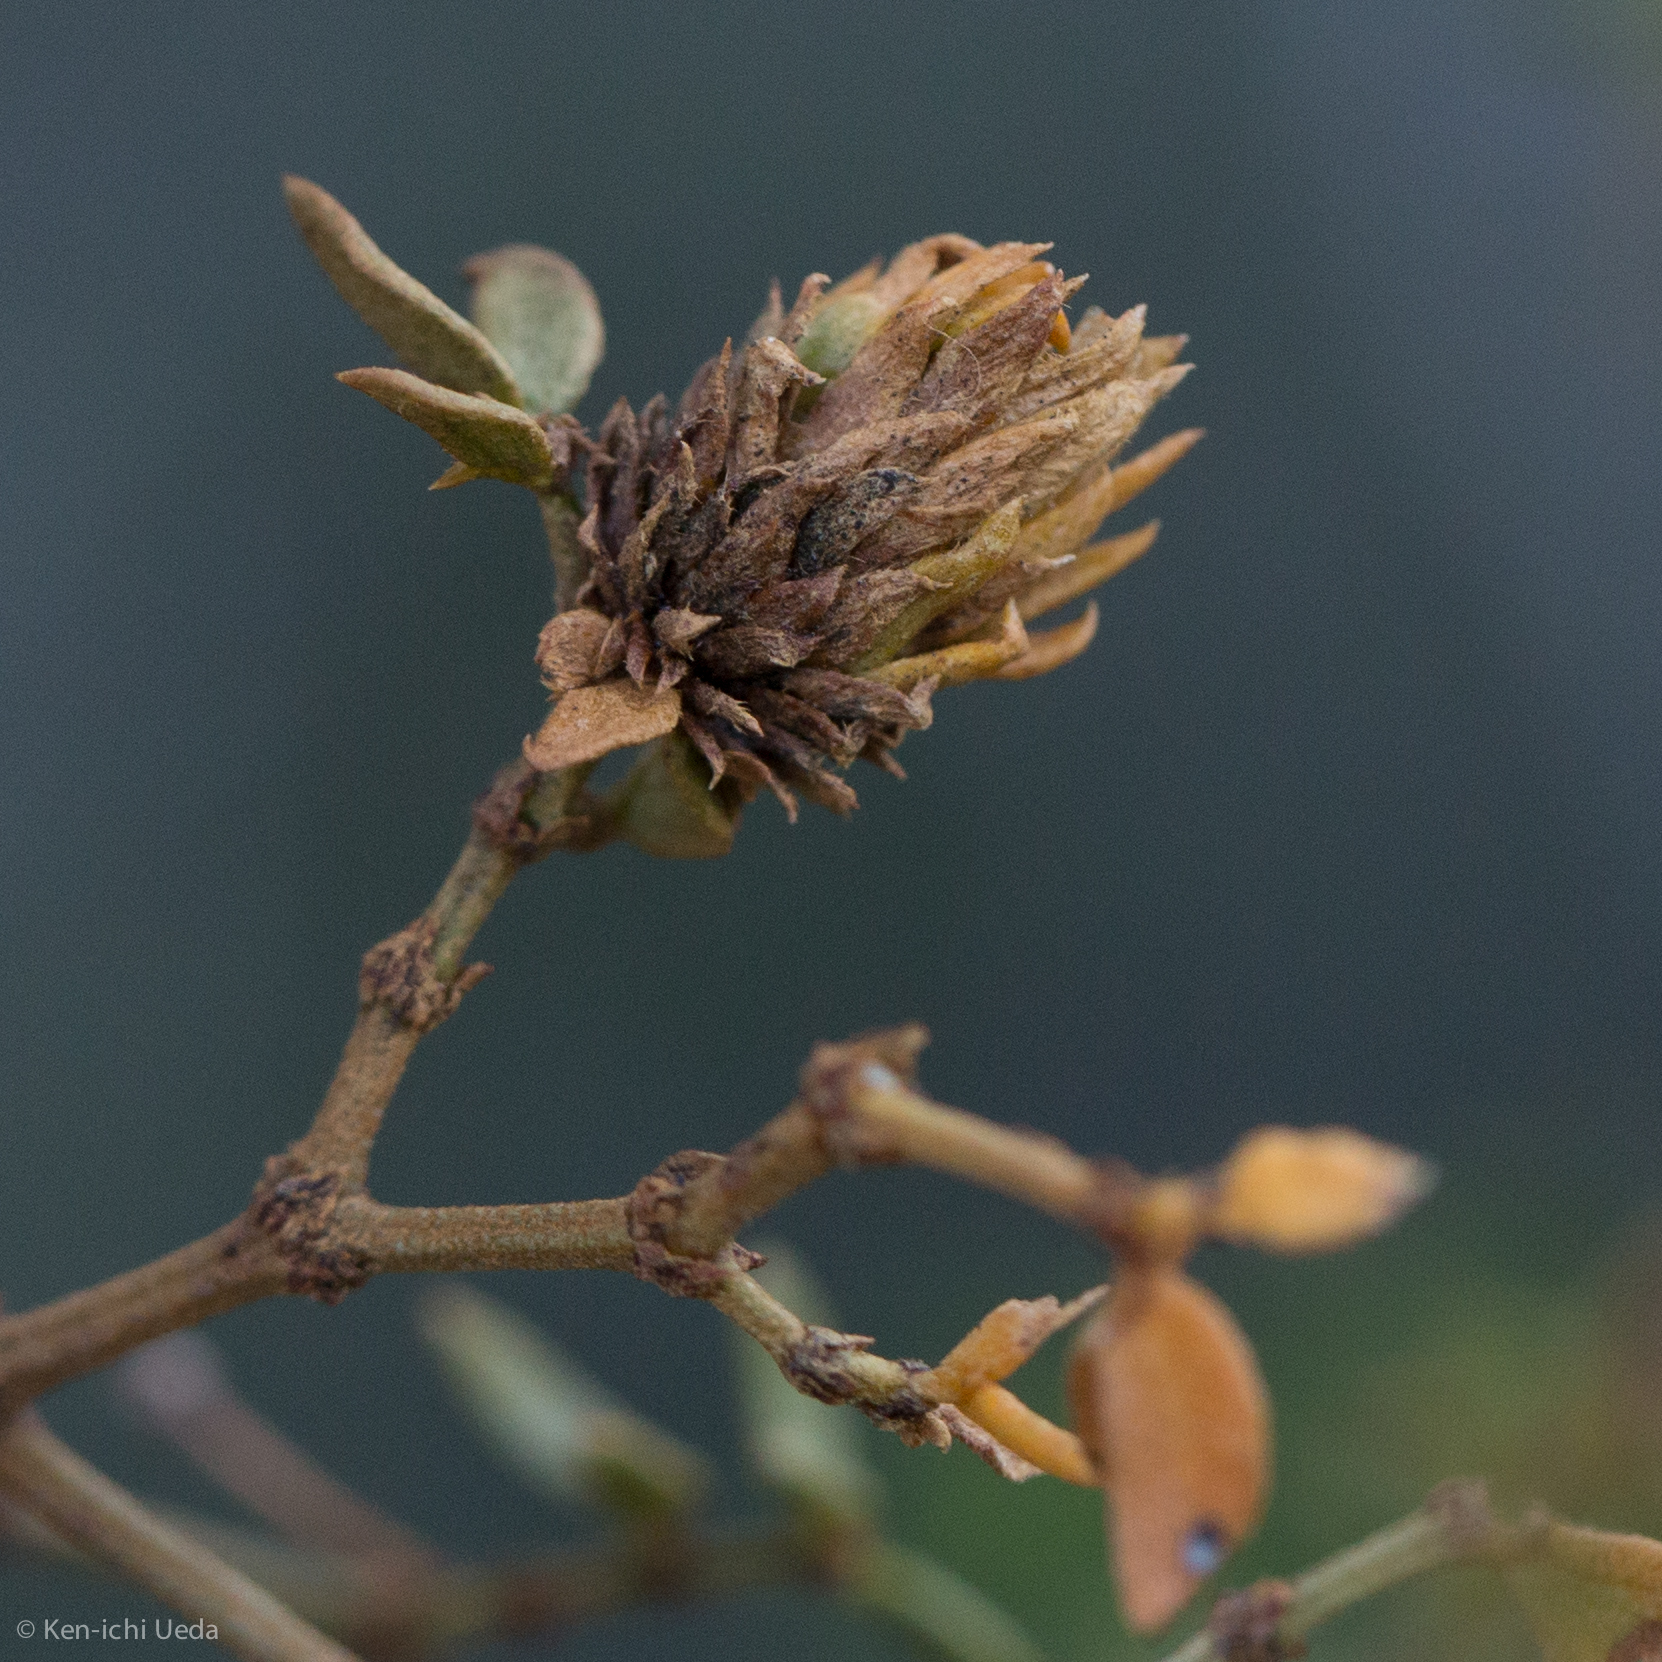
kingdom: Animalia
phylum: Arthropoda
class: Insecta
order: Diptera
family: Cecidomyiidae
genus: Asphondylia
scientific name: Asphondylia rosetta
